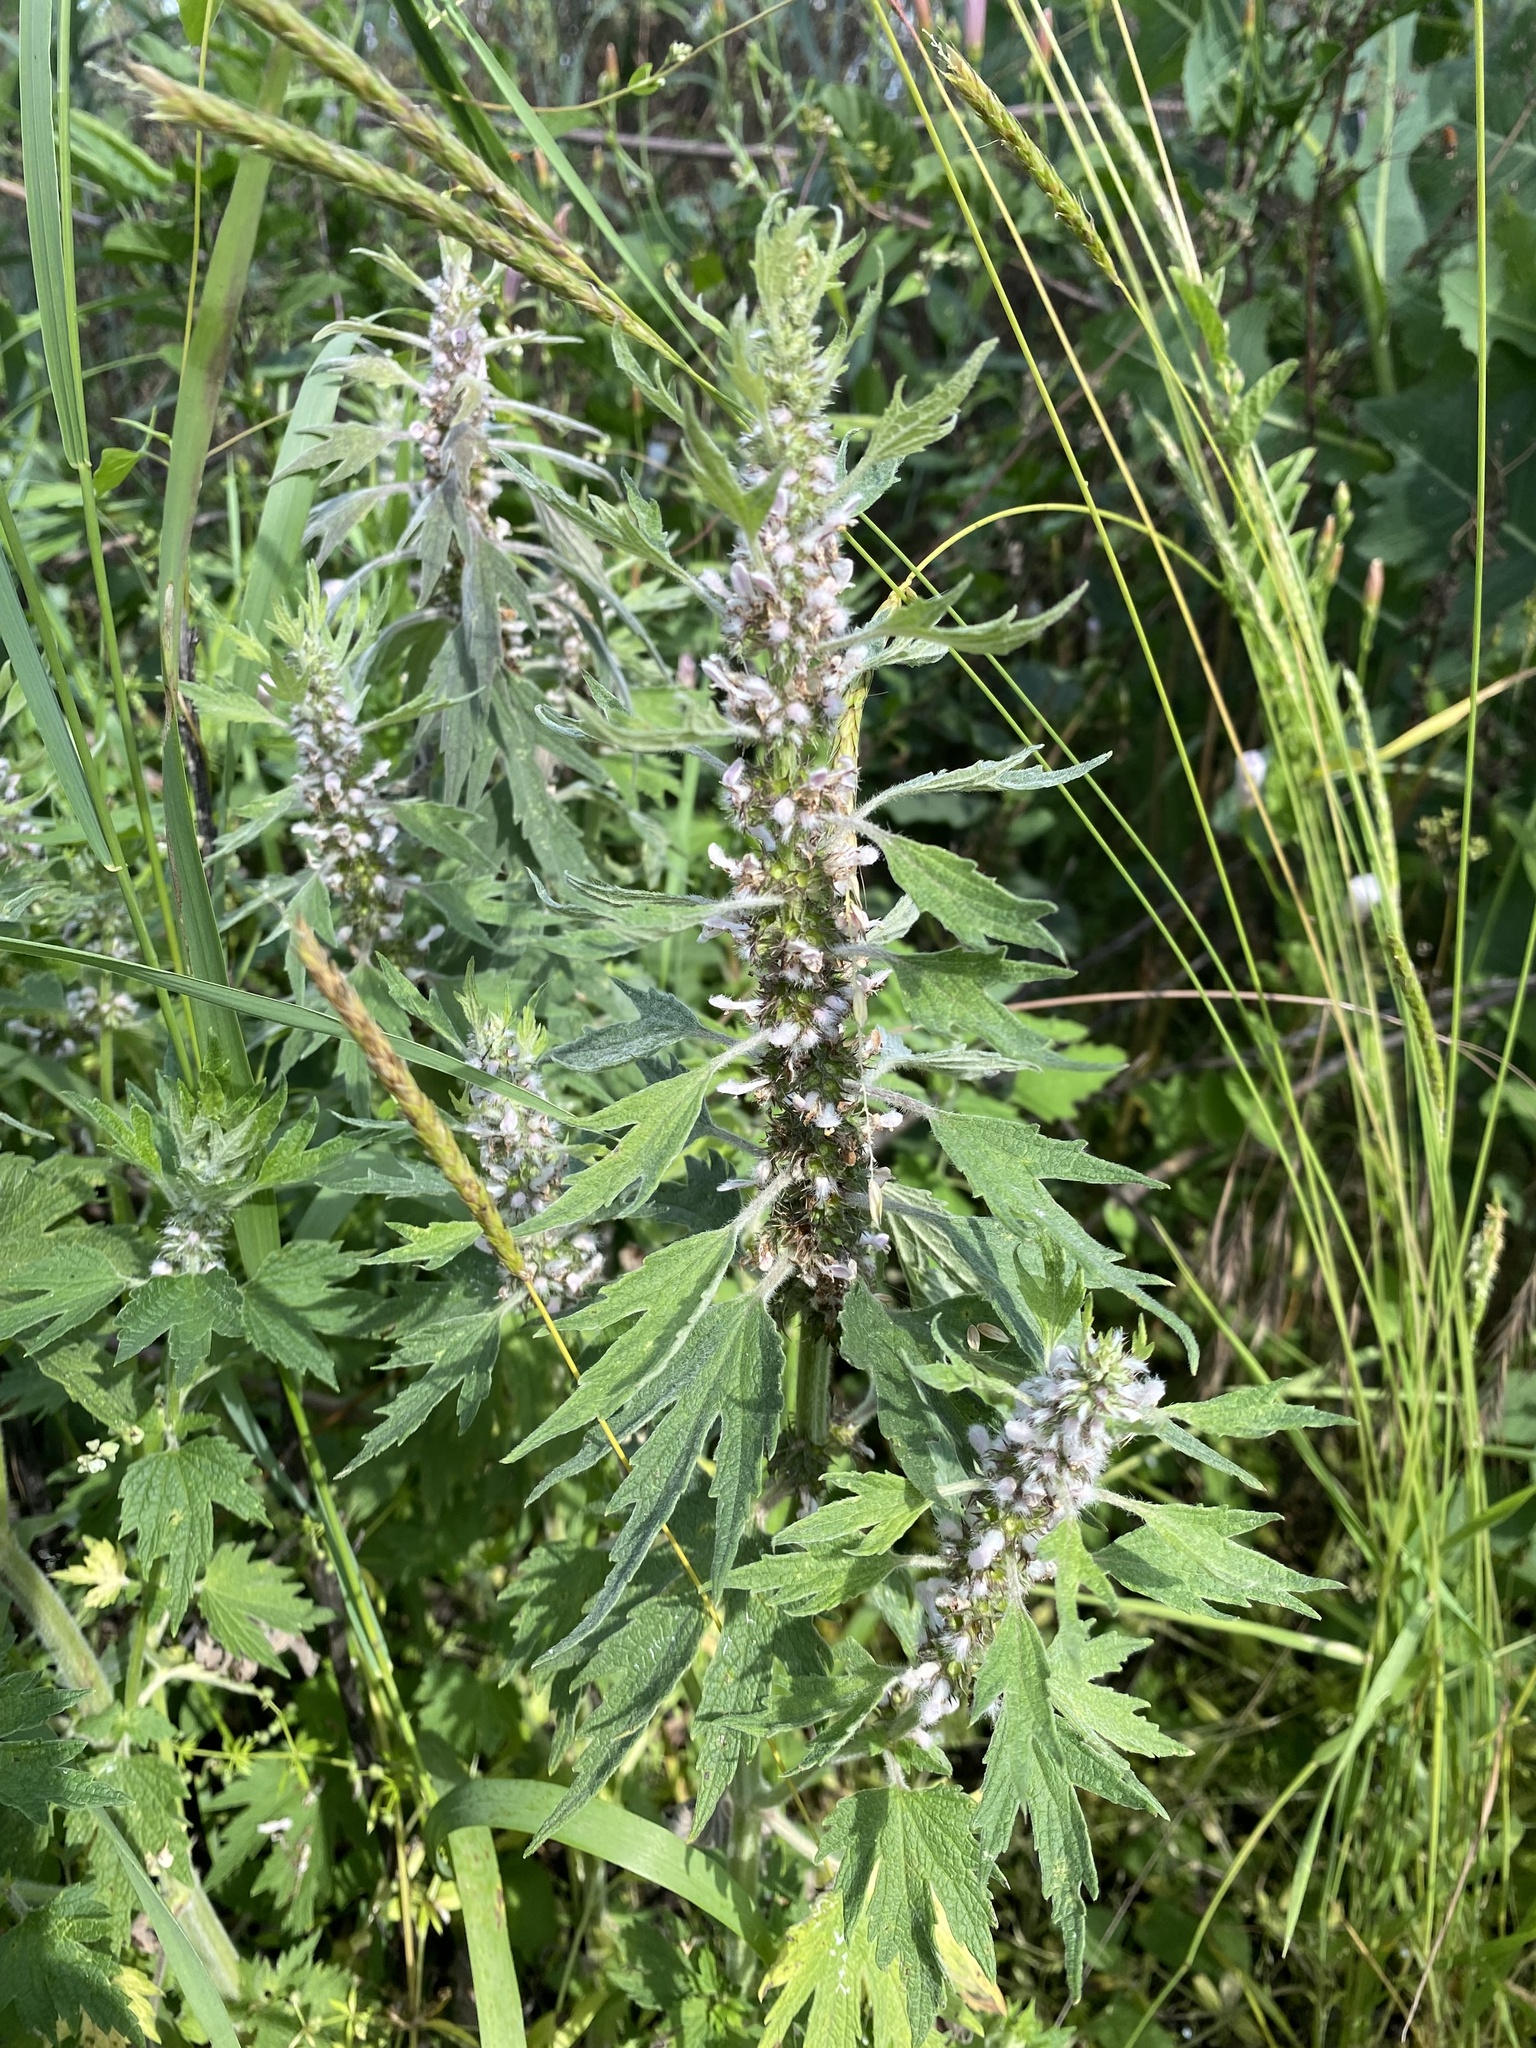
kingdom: Plantae
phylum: Tracheophyta
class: Magnoliopsida
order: Lamiales
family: Lamiaceae
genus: Leonurus
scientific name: Leonurus quinquelobatus
